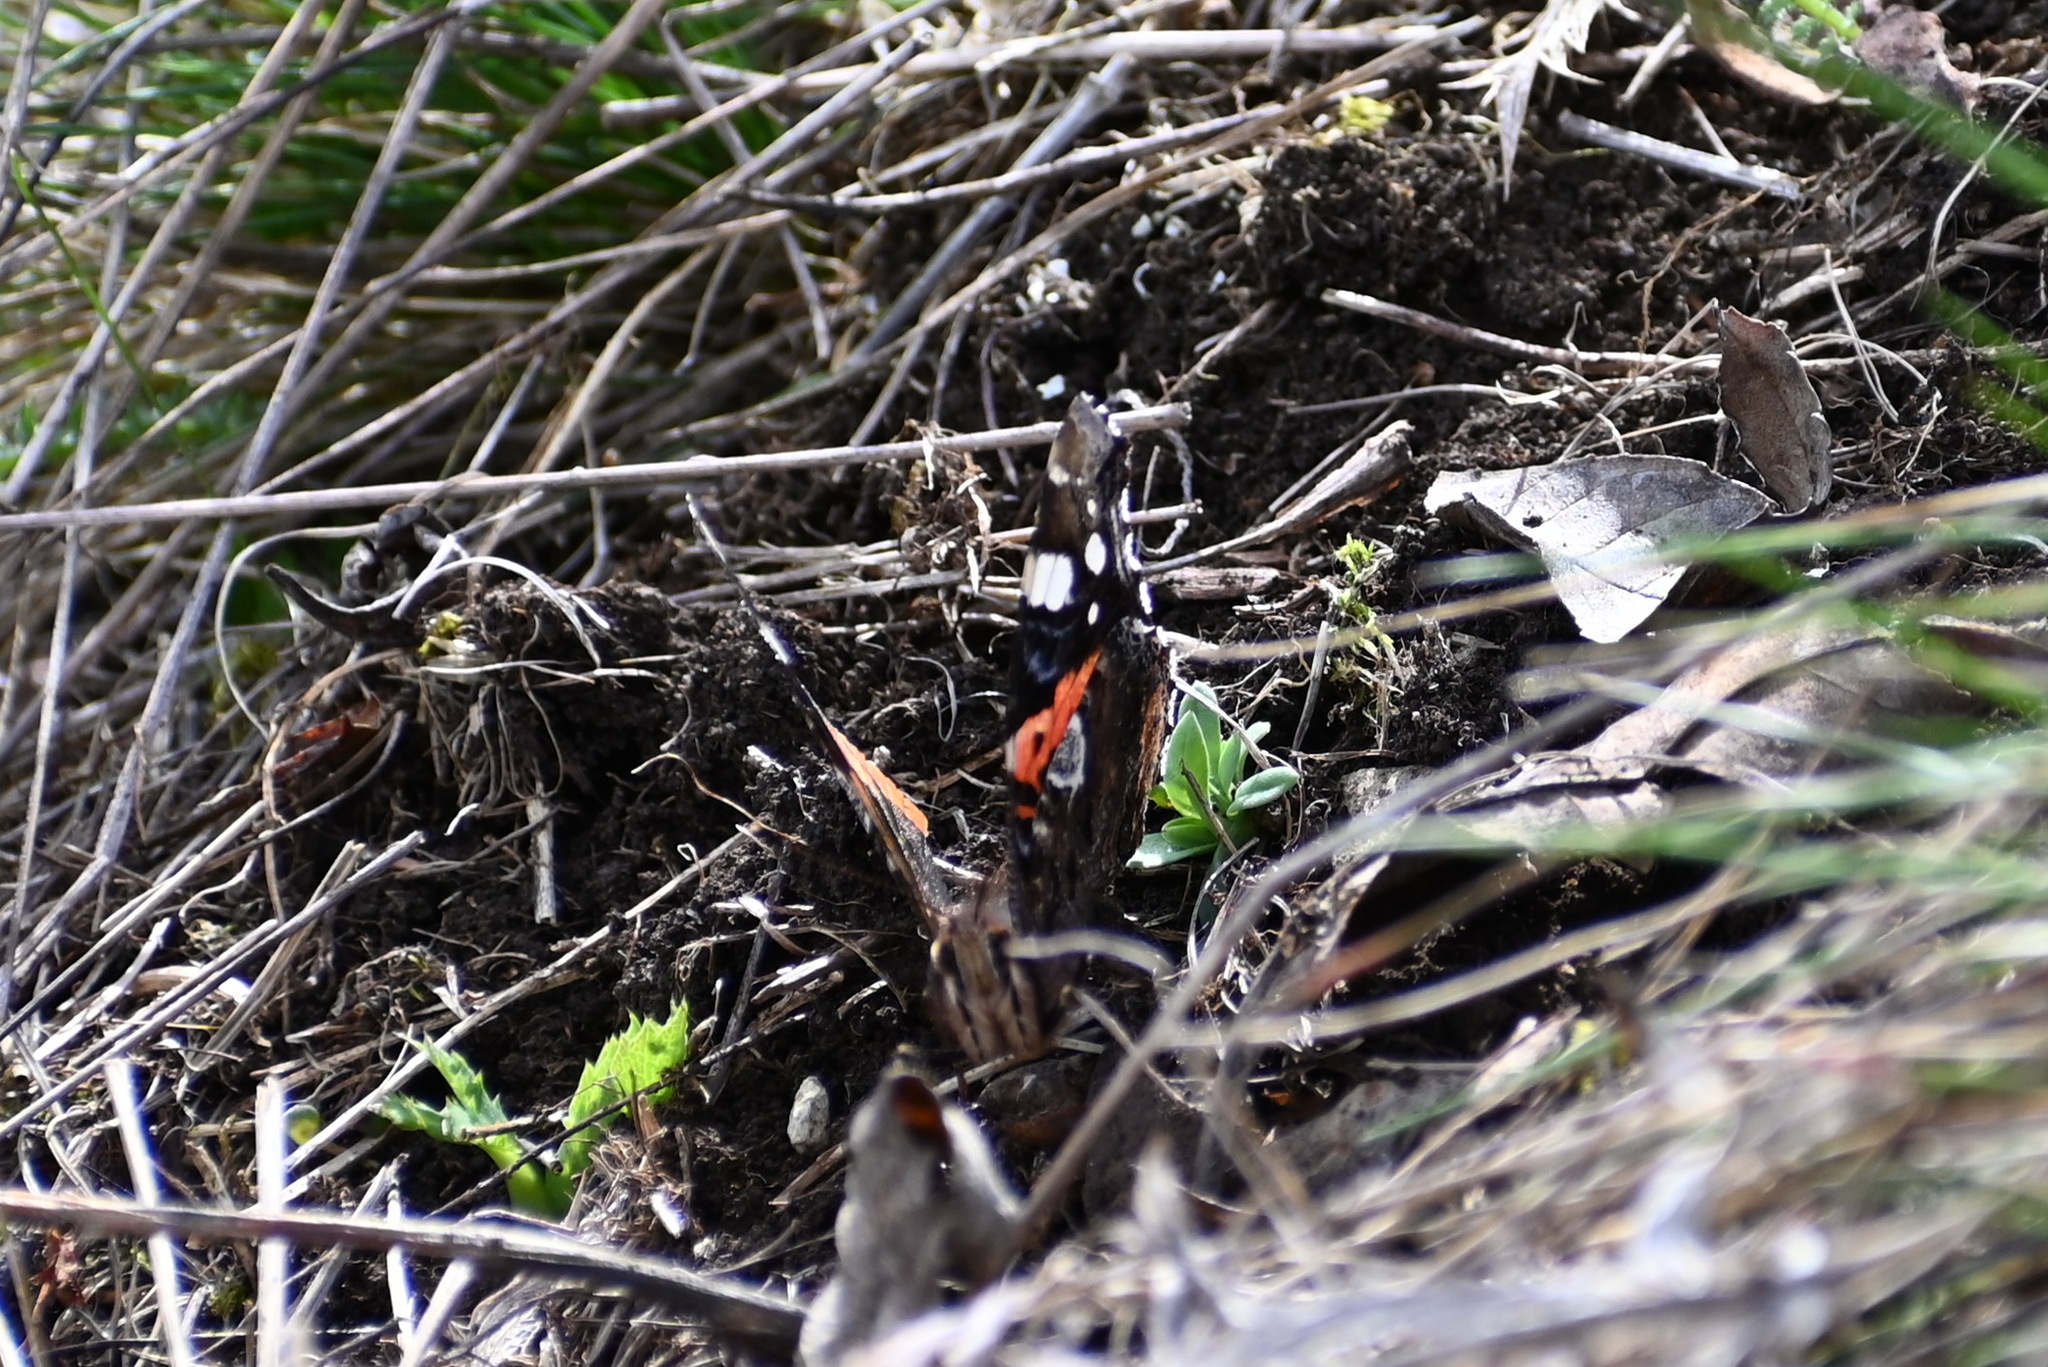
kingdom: Animalia
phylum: Arthropoda
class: Insecta
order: Lepidoptera
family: Nymphalidae
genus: Vanessa
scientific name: Vanessa atalanta
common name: Red admiral
